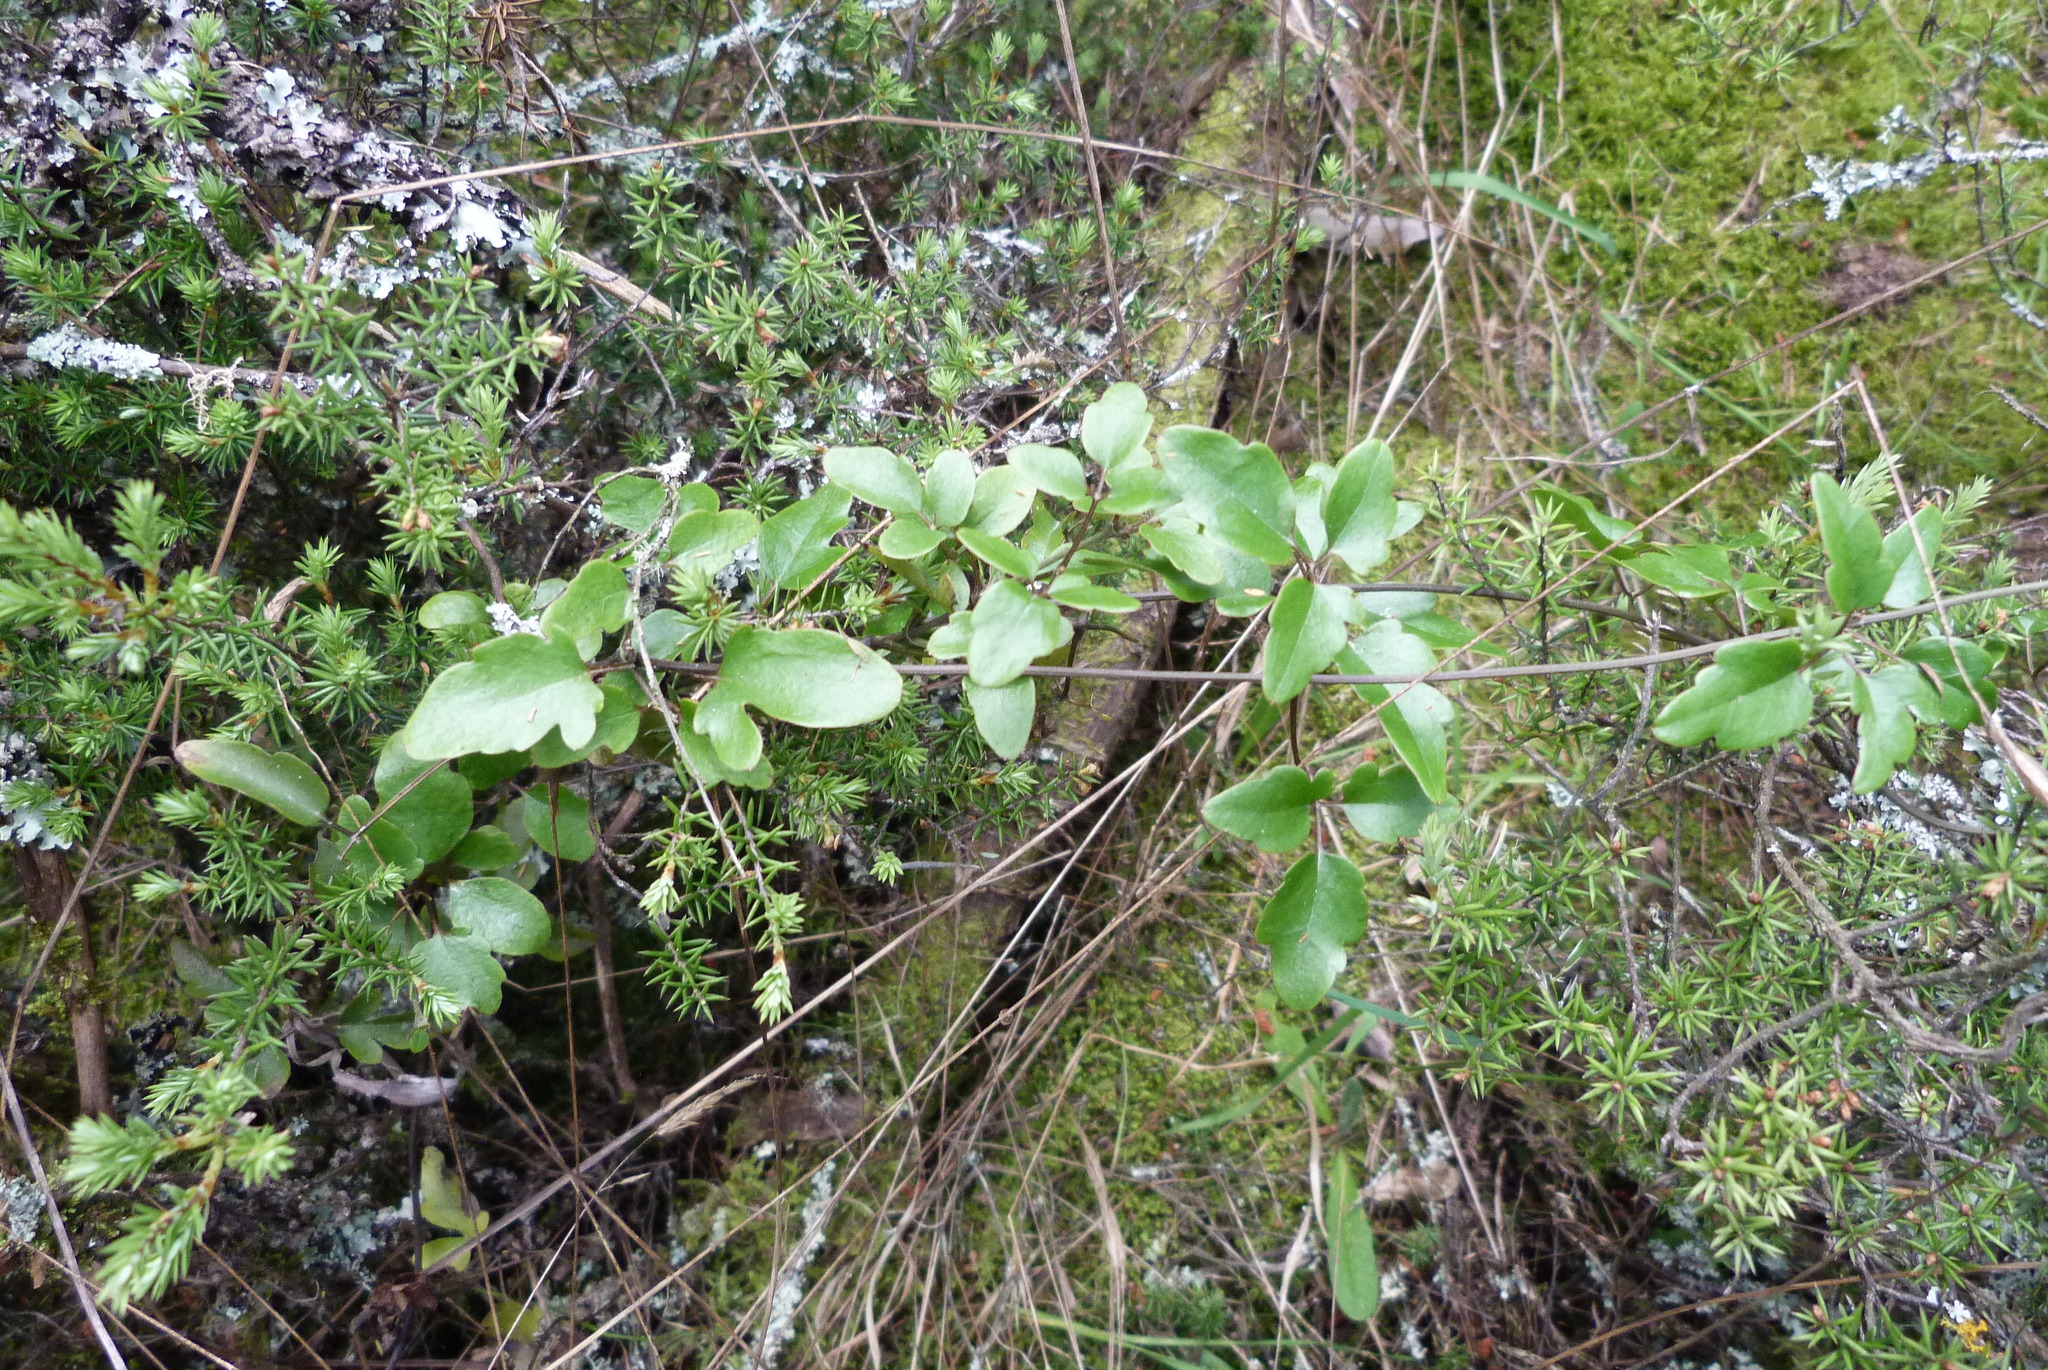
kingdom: Plantae
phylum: Tracheophyta
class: Magnoliopsida
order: Ranunculales
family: Ranunculaceae
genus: Clematis
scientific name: Clematis quadribracteolata
